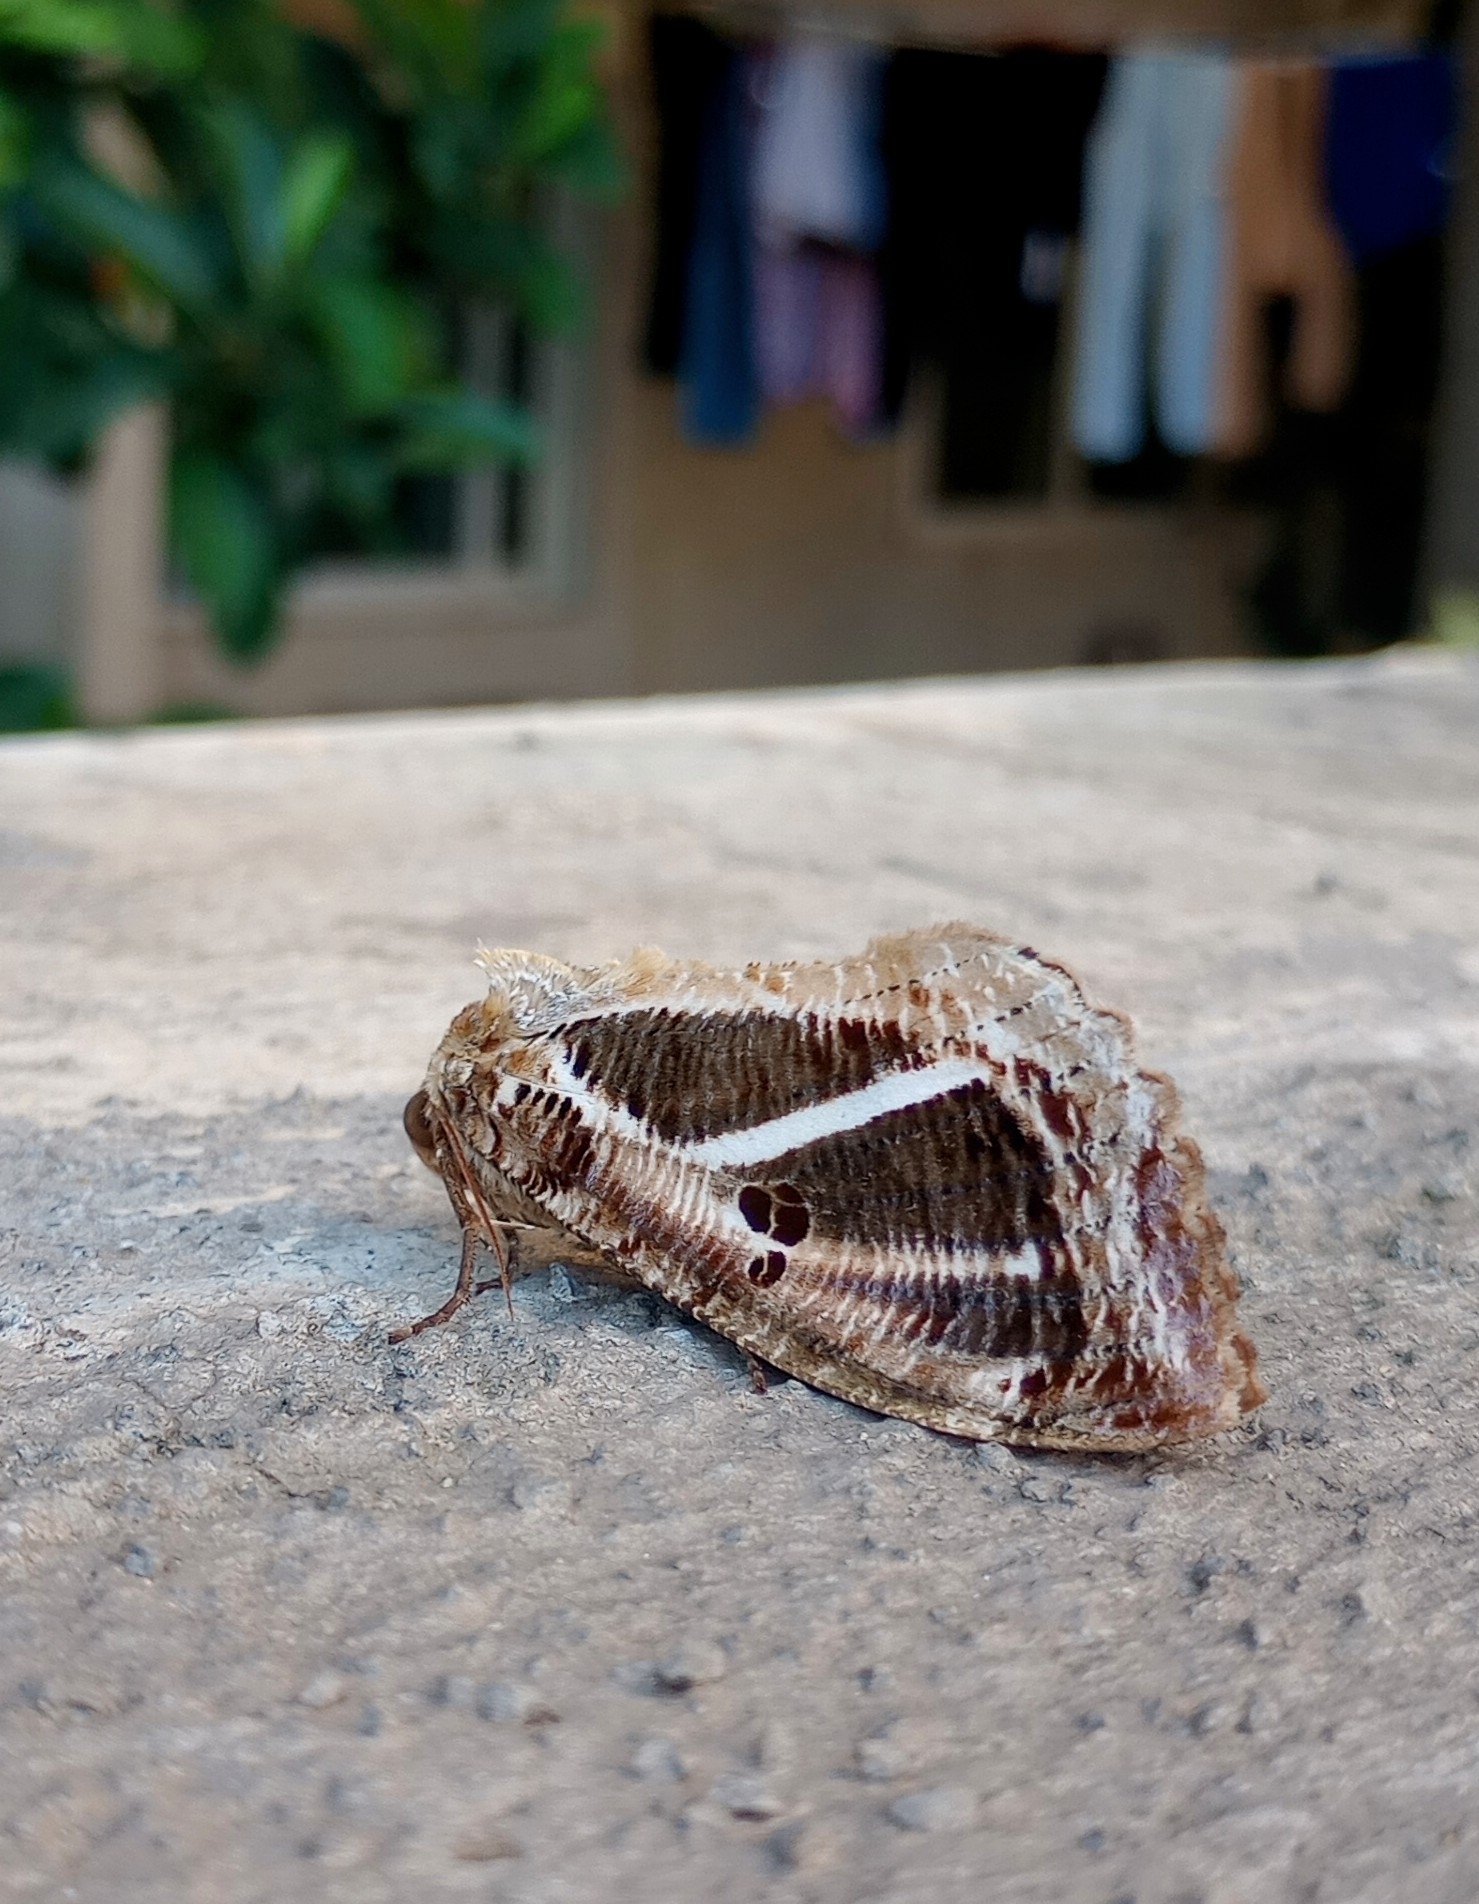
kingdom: Animalia
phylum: Arthropoda
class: Insecta
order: Lepidoptera
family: Erebidae
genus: Eudocima
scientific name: Eudocima materna
